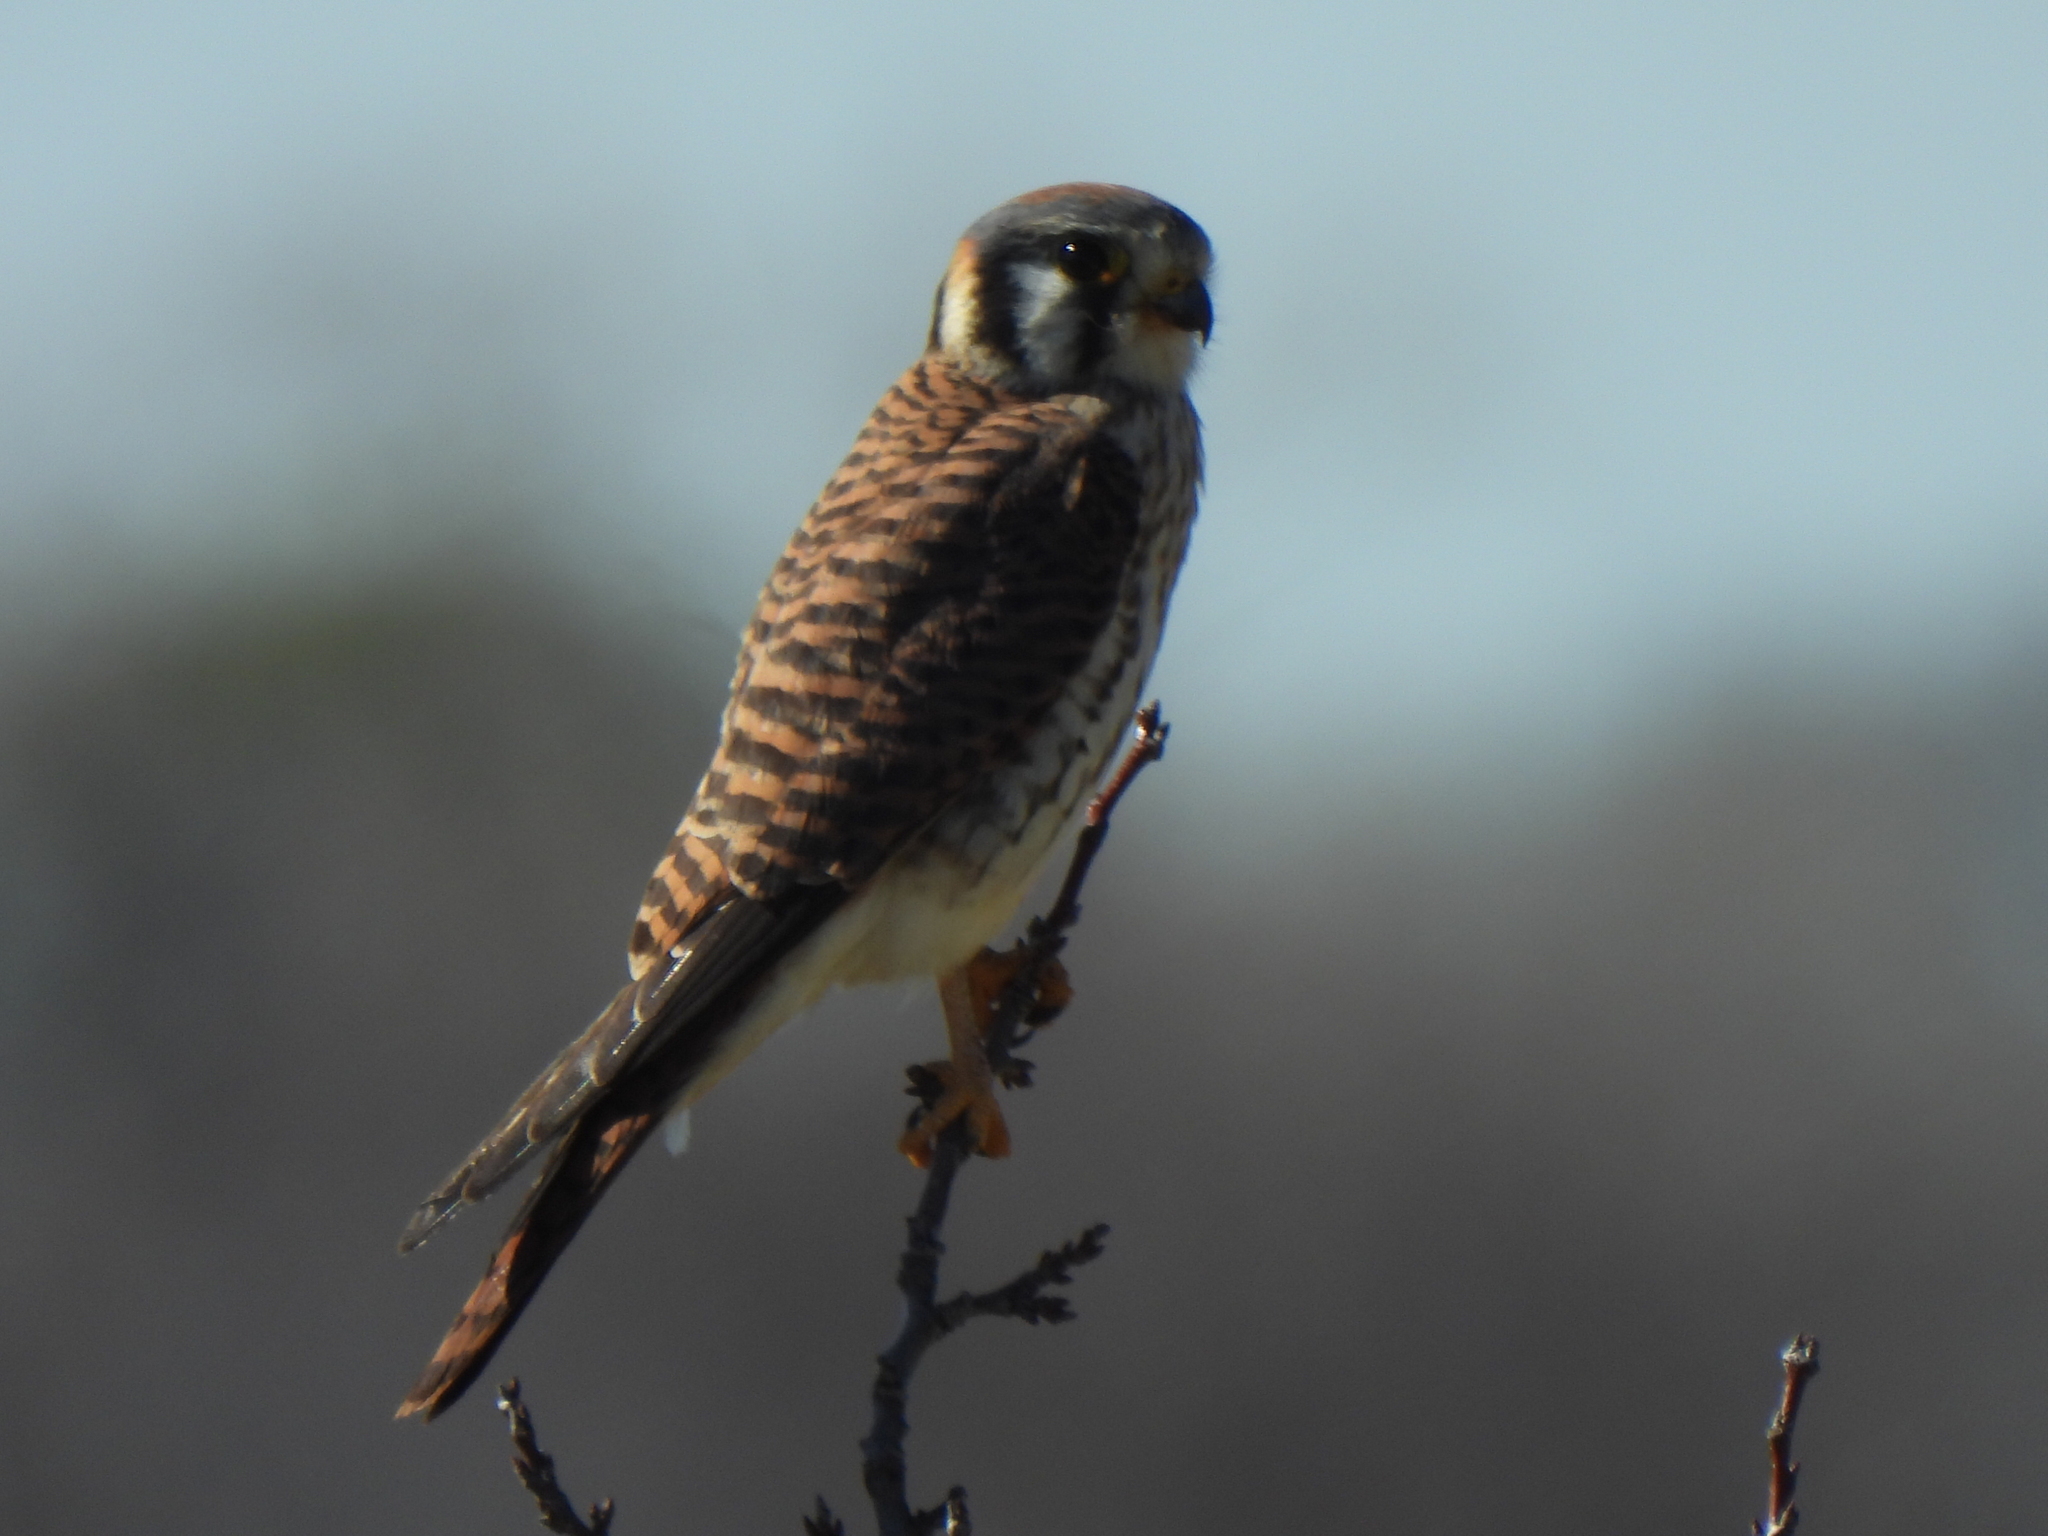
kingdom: Animalia
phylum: Chordata
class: Aves
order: Falconiformes
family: Falconidae
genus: Falco
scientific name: Falco sparverius
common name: American kestrel
